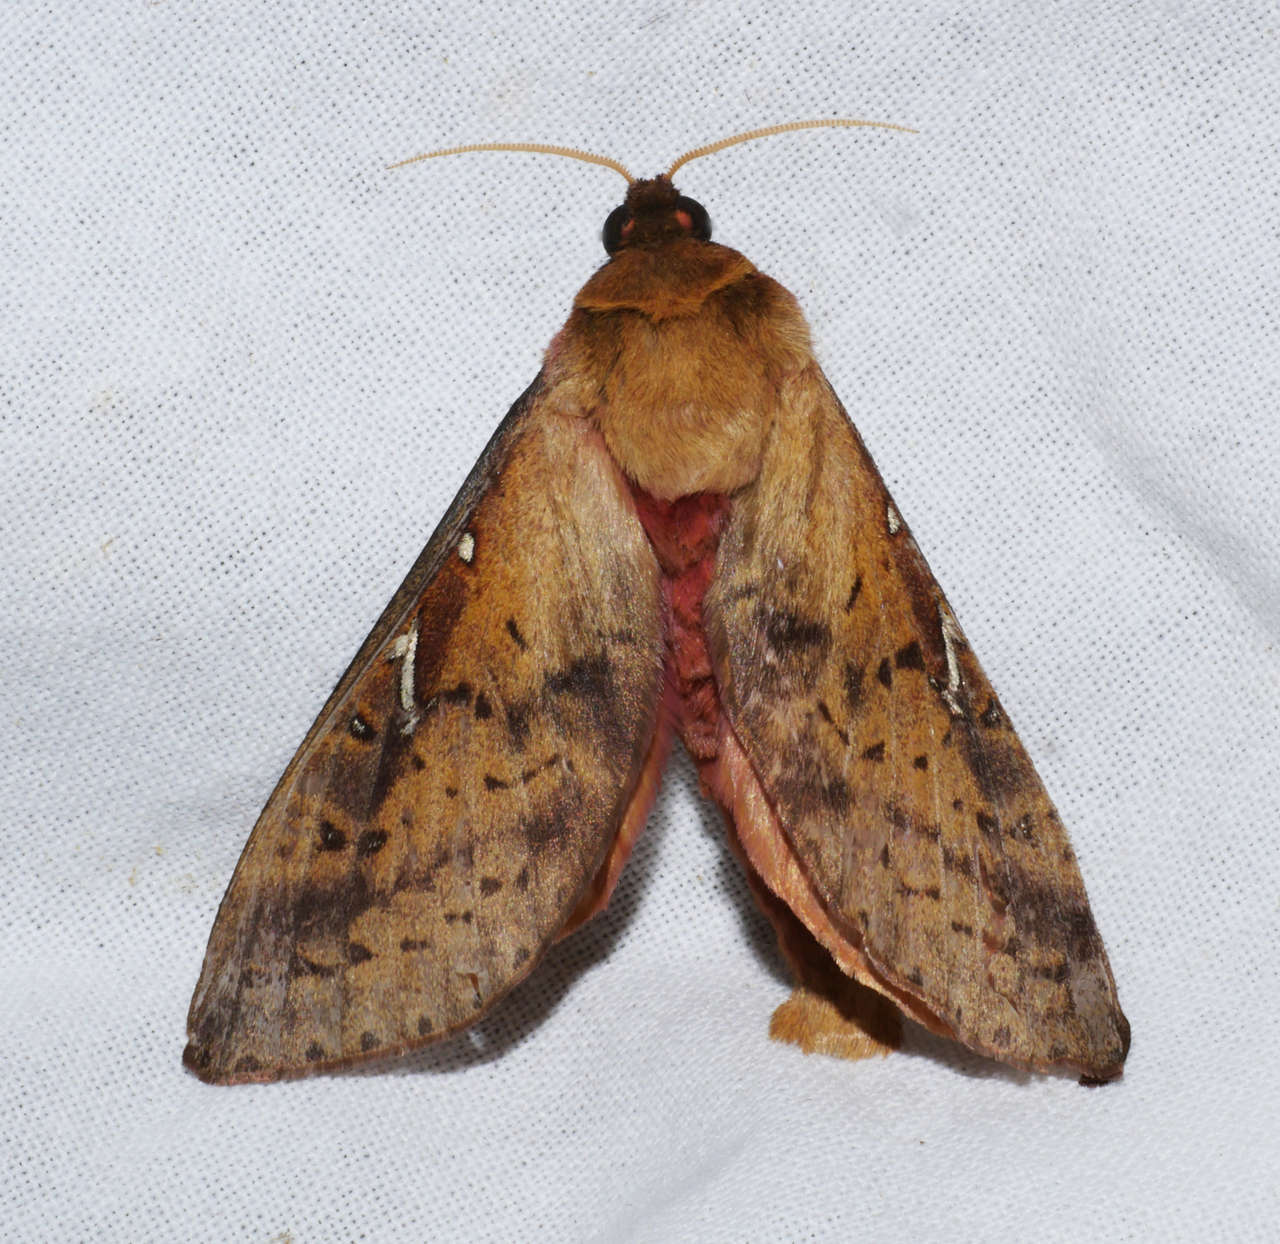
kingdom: Animalia
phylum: Arthropoda
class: Insecta
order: Lepidoptera
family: Hepialidae
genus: Oxycanus
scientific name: Oxycanus sirpus
